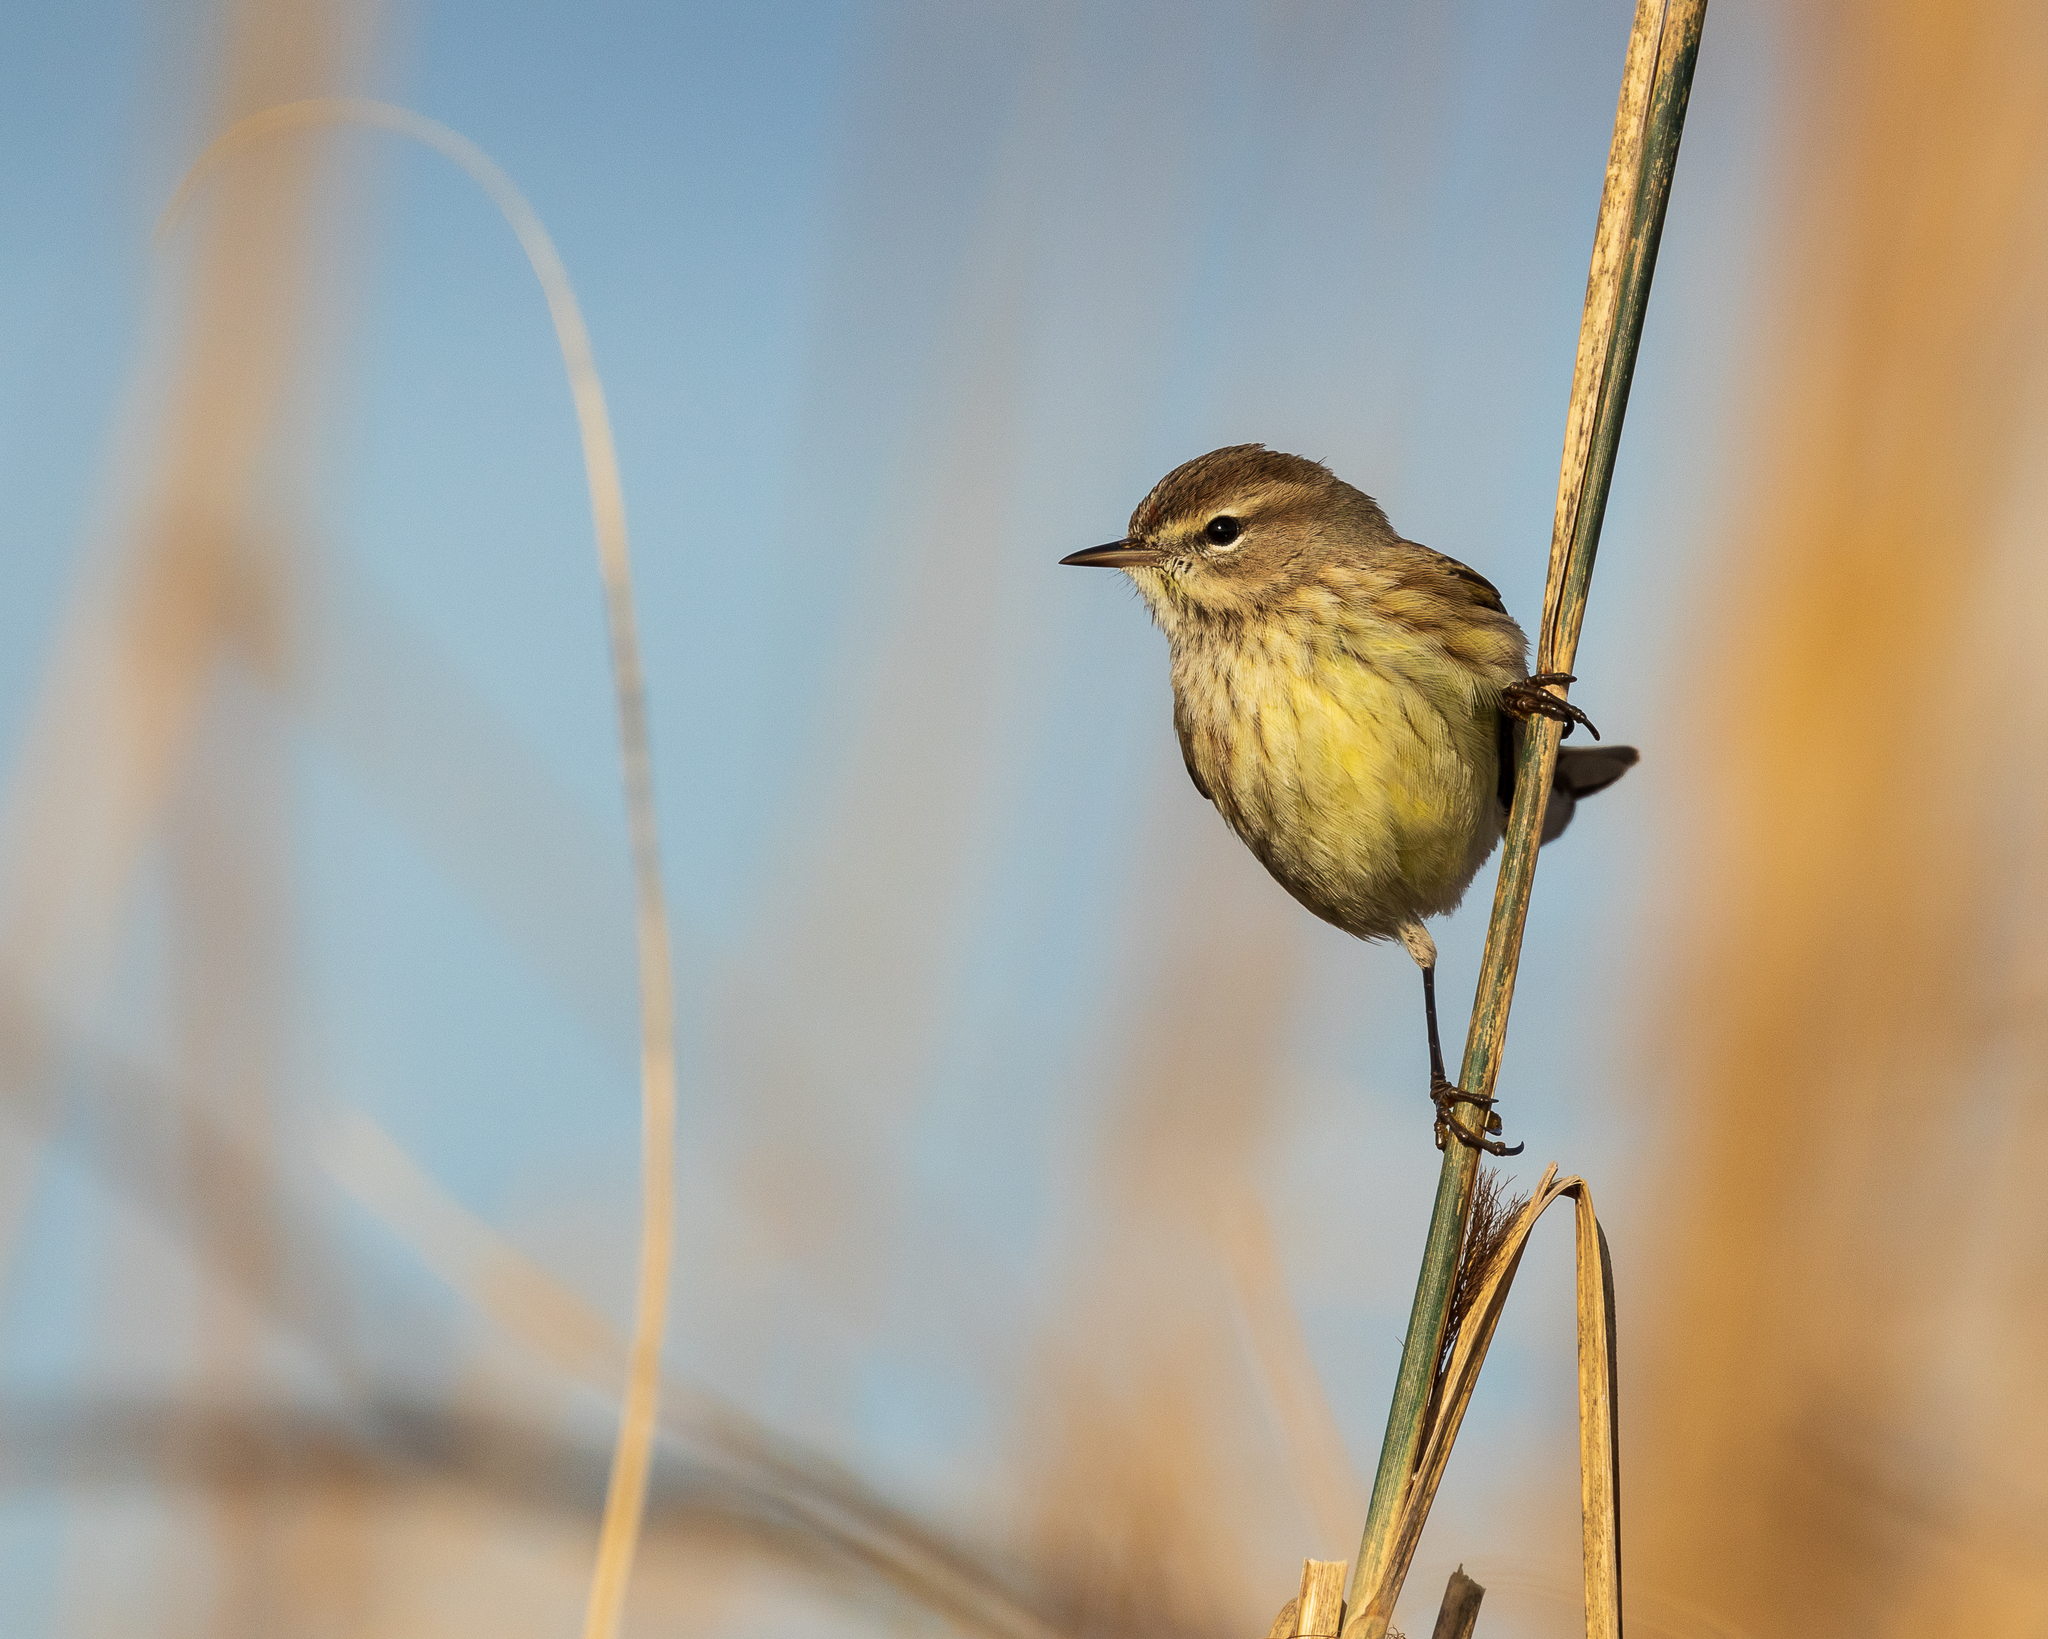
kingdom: Animalia
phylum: Chordata
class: Aves
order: Passeriformes
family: Parulidae
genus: Setophaga
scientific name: Setophaga palmarum
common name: Palm warbler
